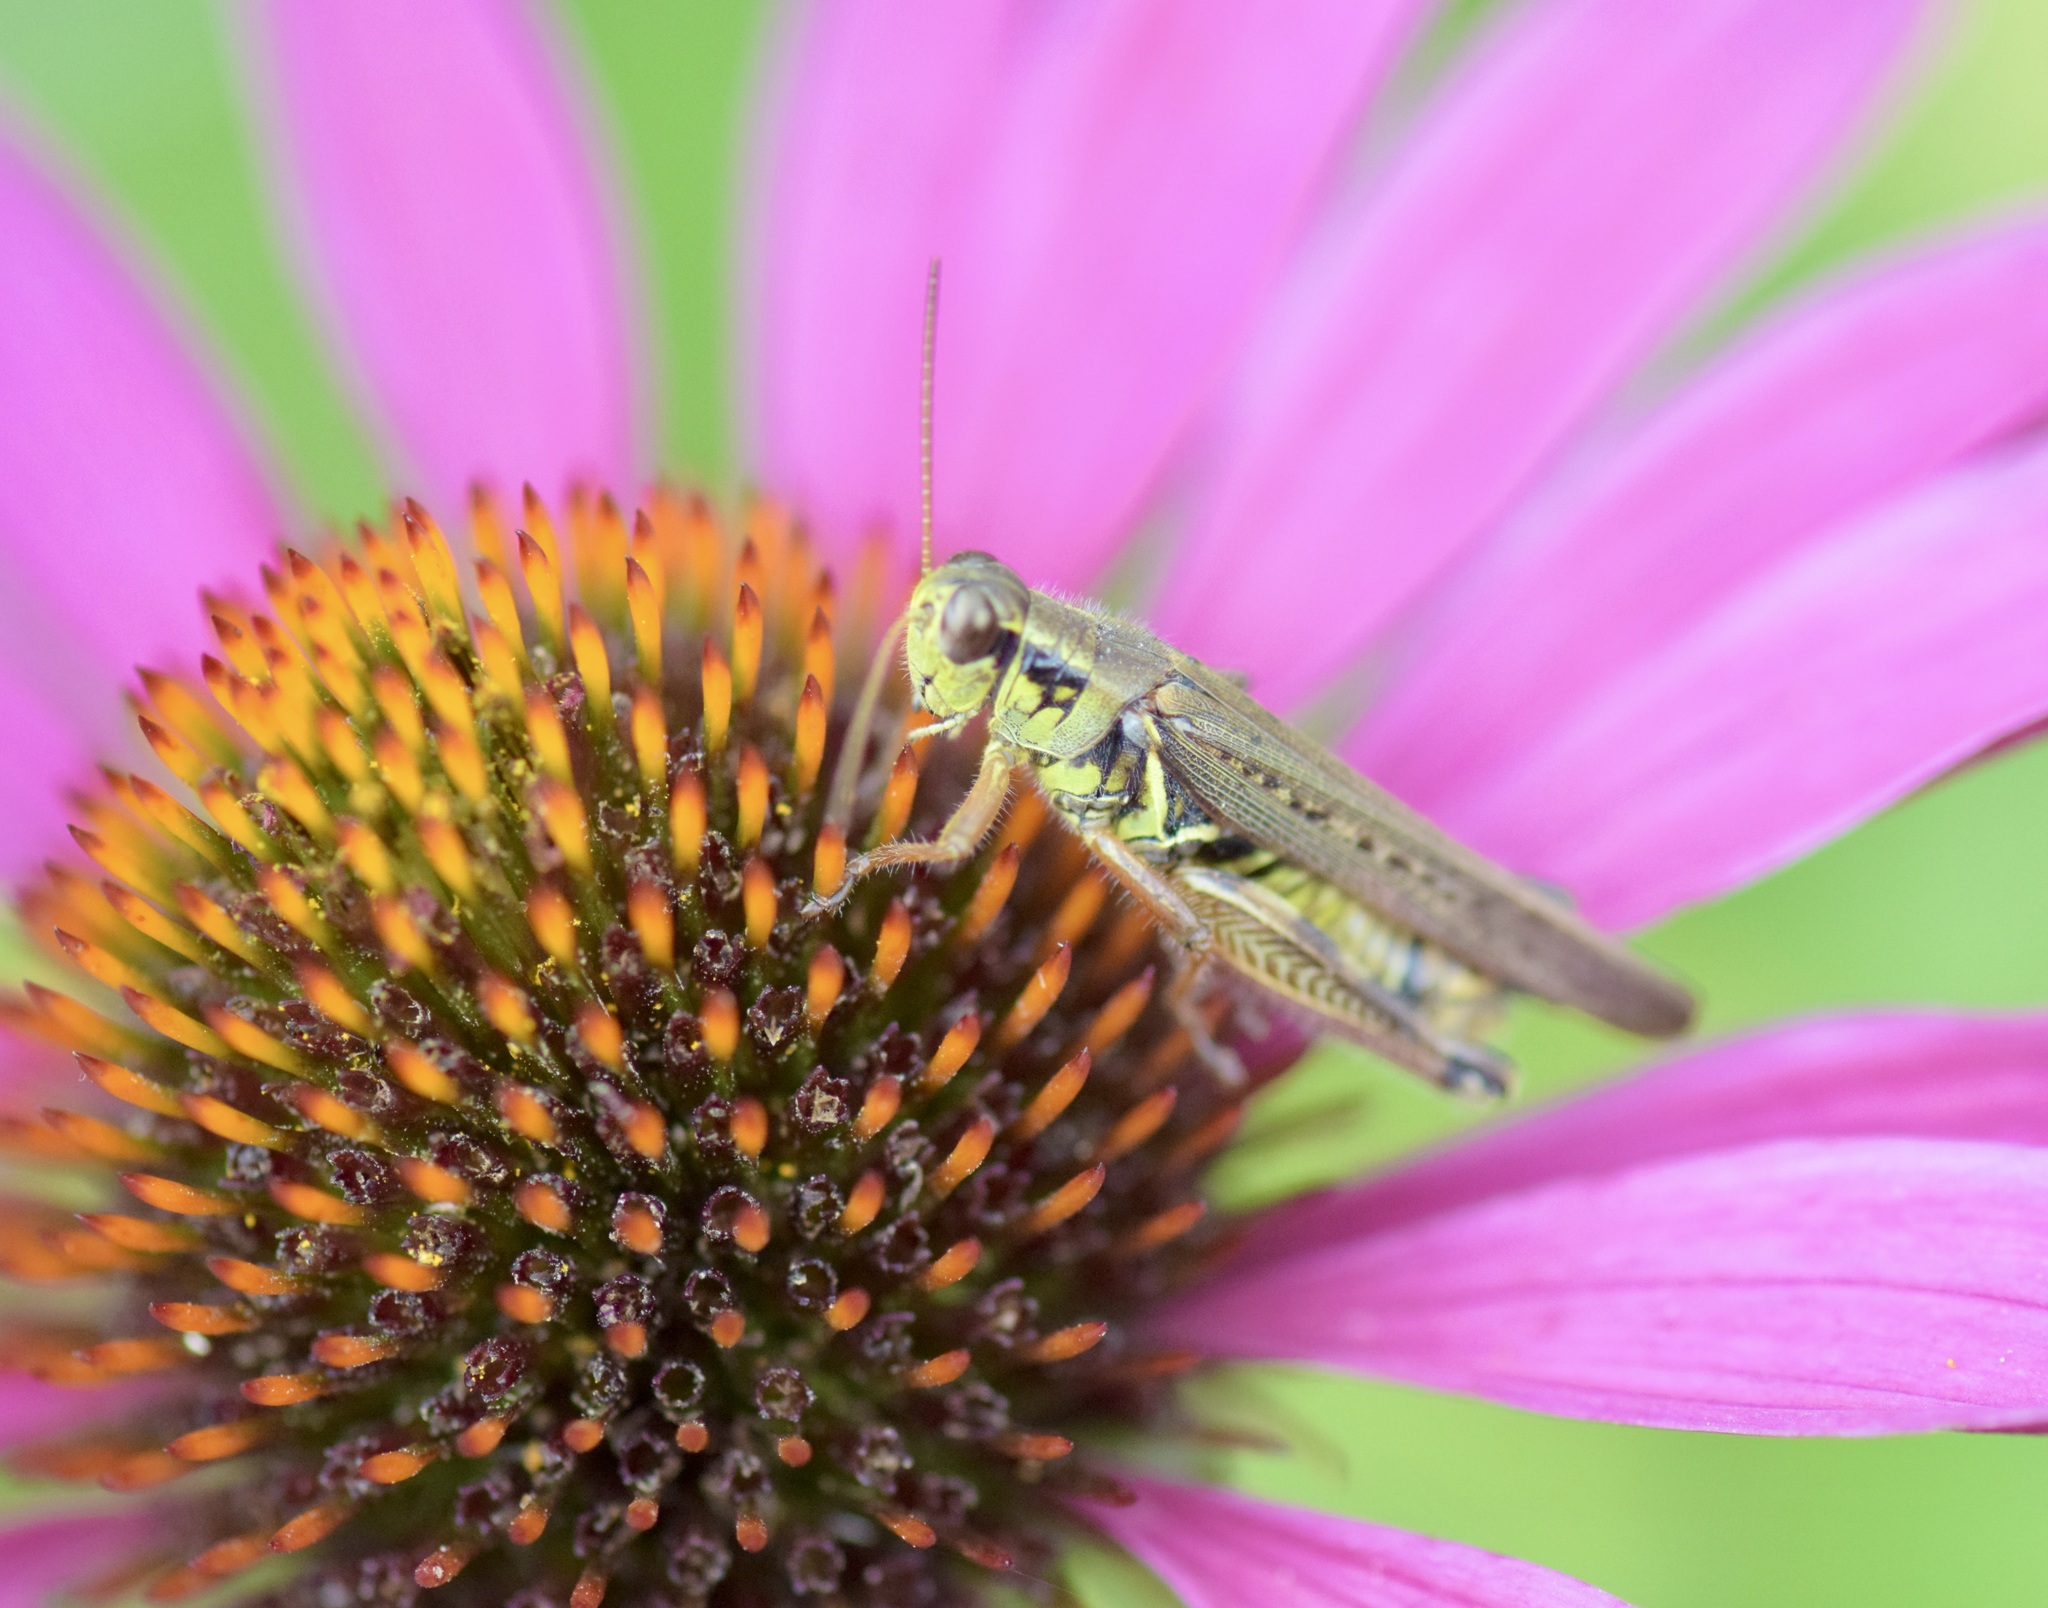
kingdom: Animalia
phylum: Arthropoda
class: Insecta
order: Orthoptera
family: Acrididae
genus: Melanoplus
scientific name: Melanoplus femurrubrum
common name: Red-legged grasshopper
